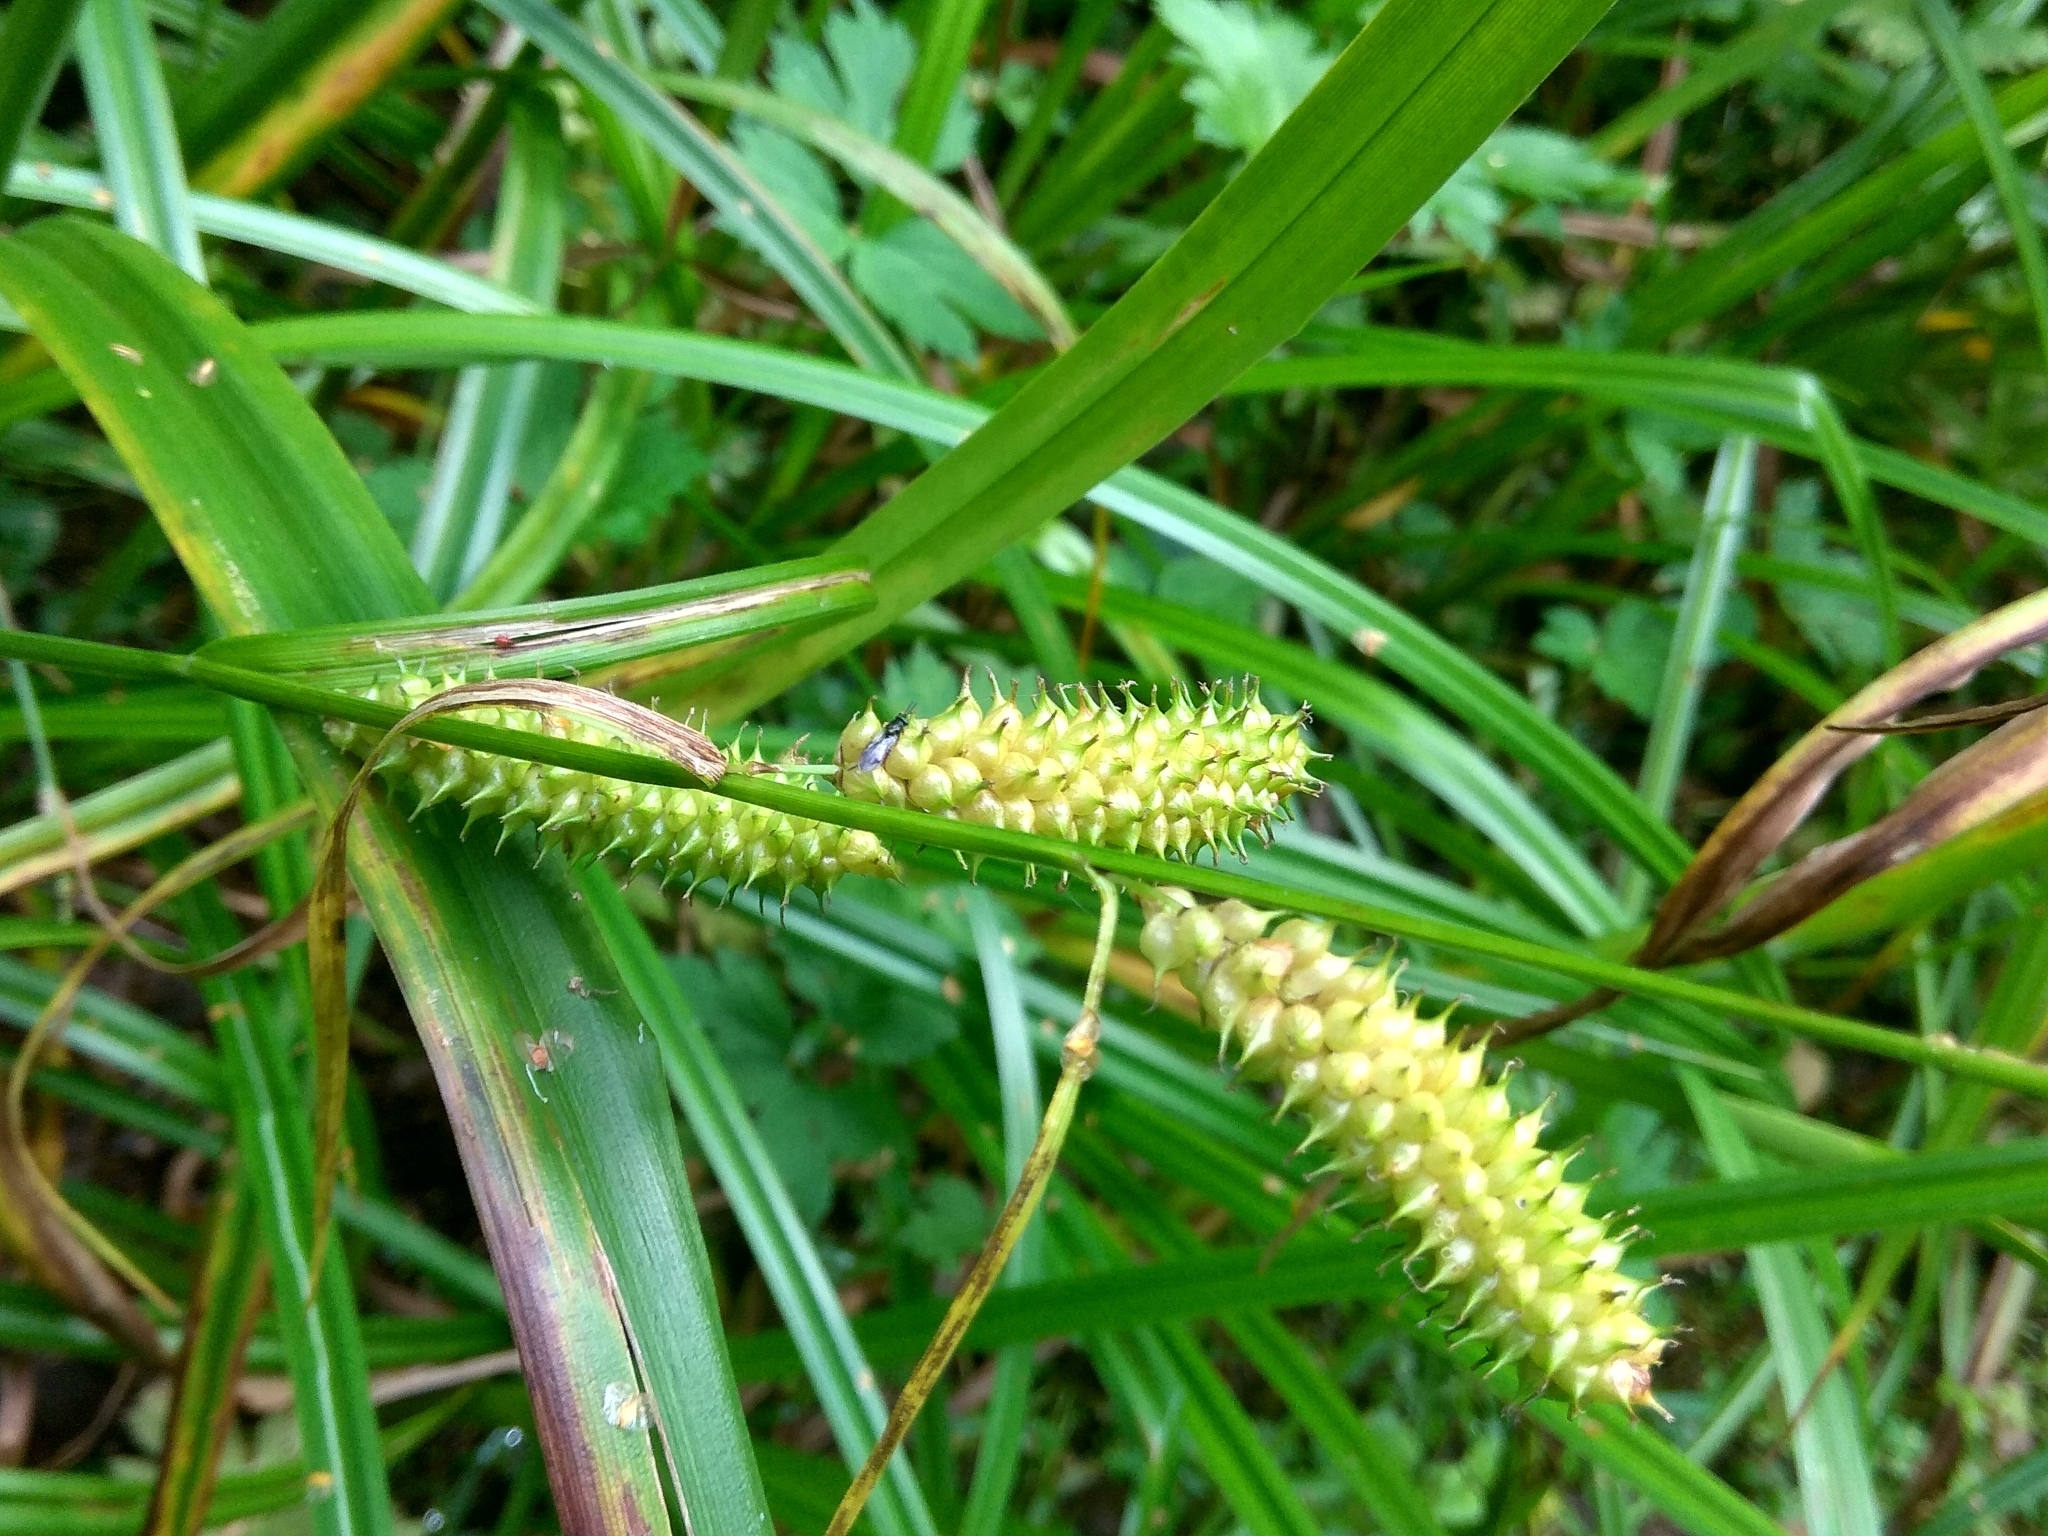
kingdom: Plantae
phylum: Tracheophyta
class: Liliopsida
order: Poales
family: Cyperaceae
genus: Carex
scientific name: Carex utriculata
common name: Beaked sedge
